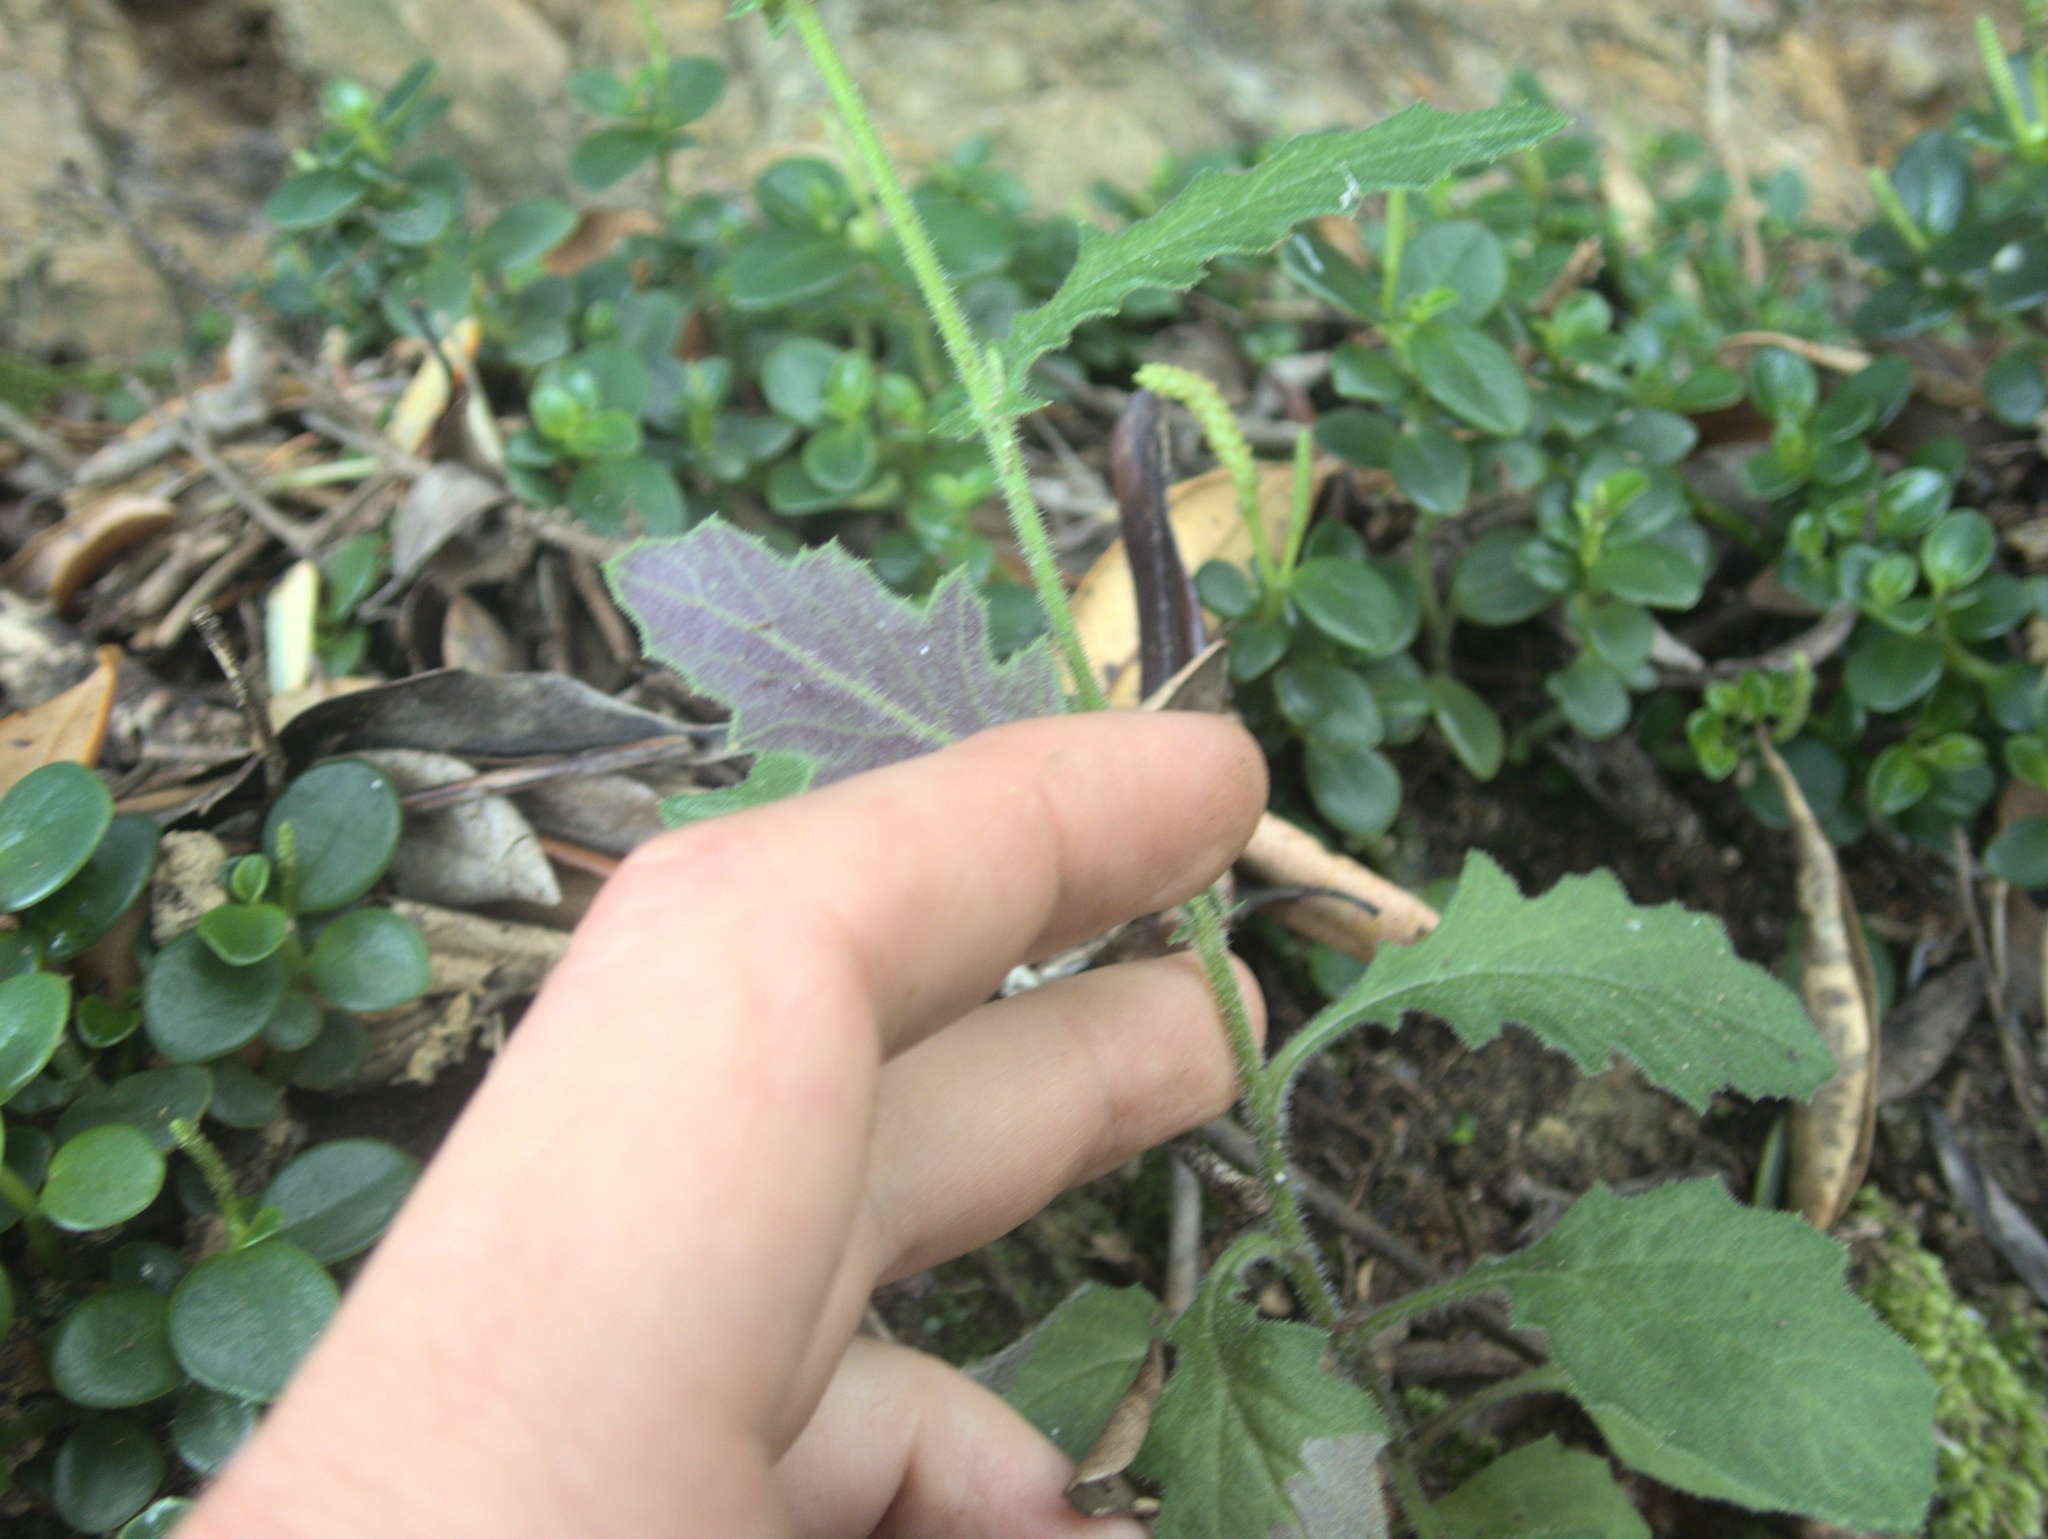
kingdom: Plantae
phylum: Tracheophyta
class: Magnoliopsida
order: Asterales
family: Asteraceae
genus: Senecio
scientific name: Senecio scaberulus
